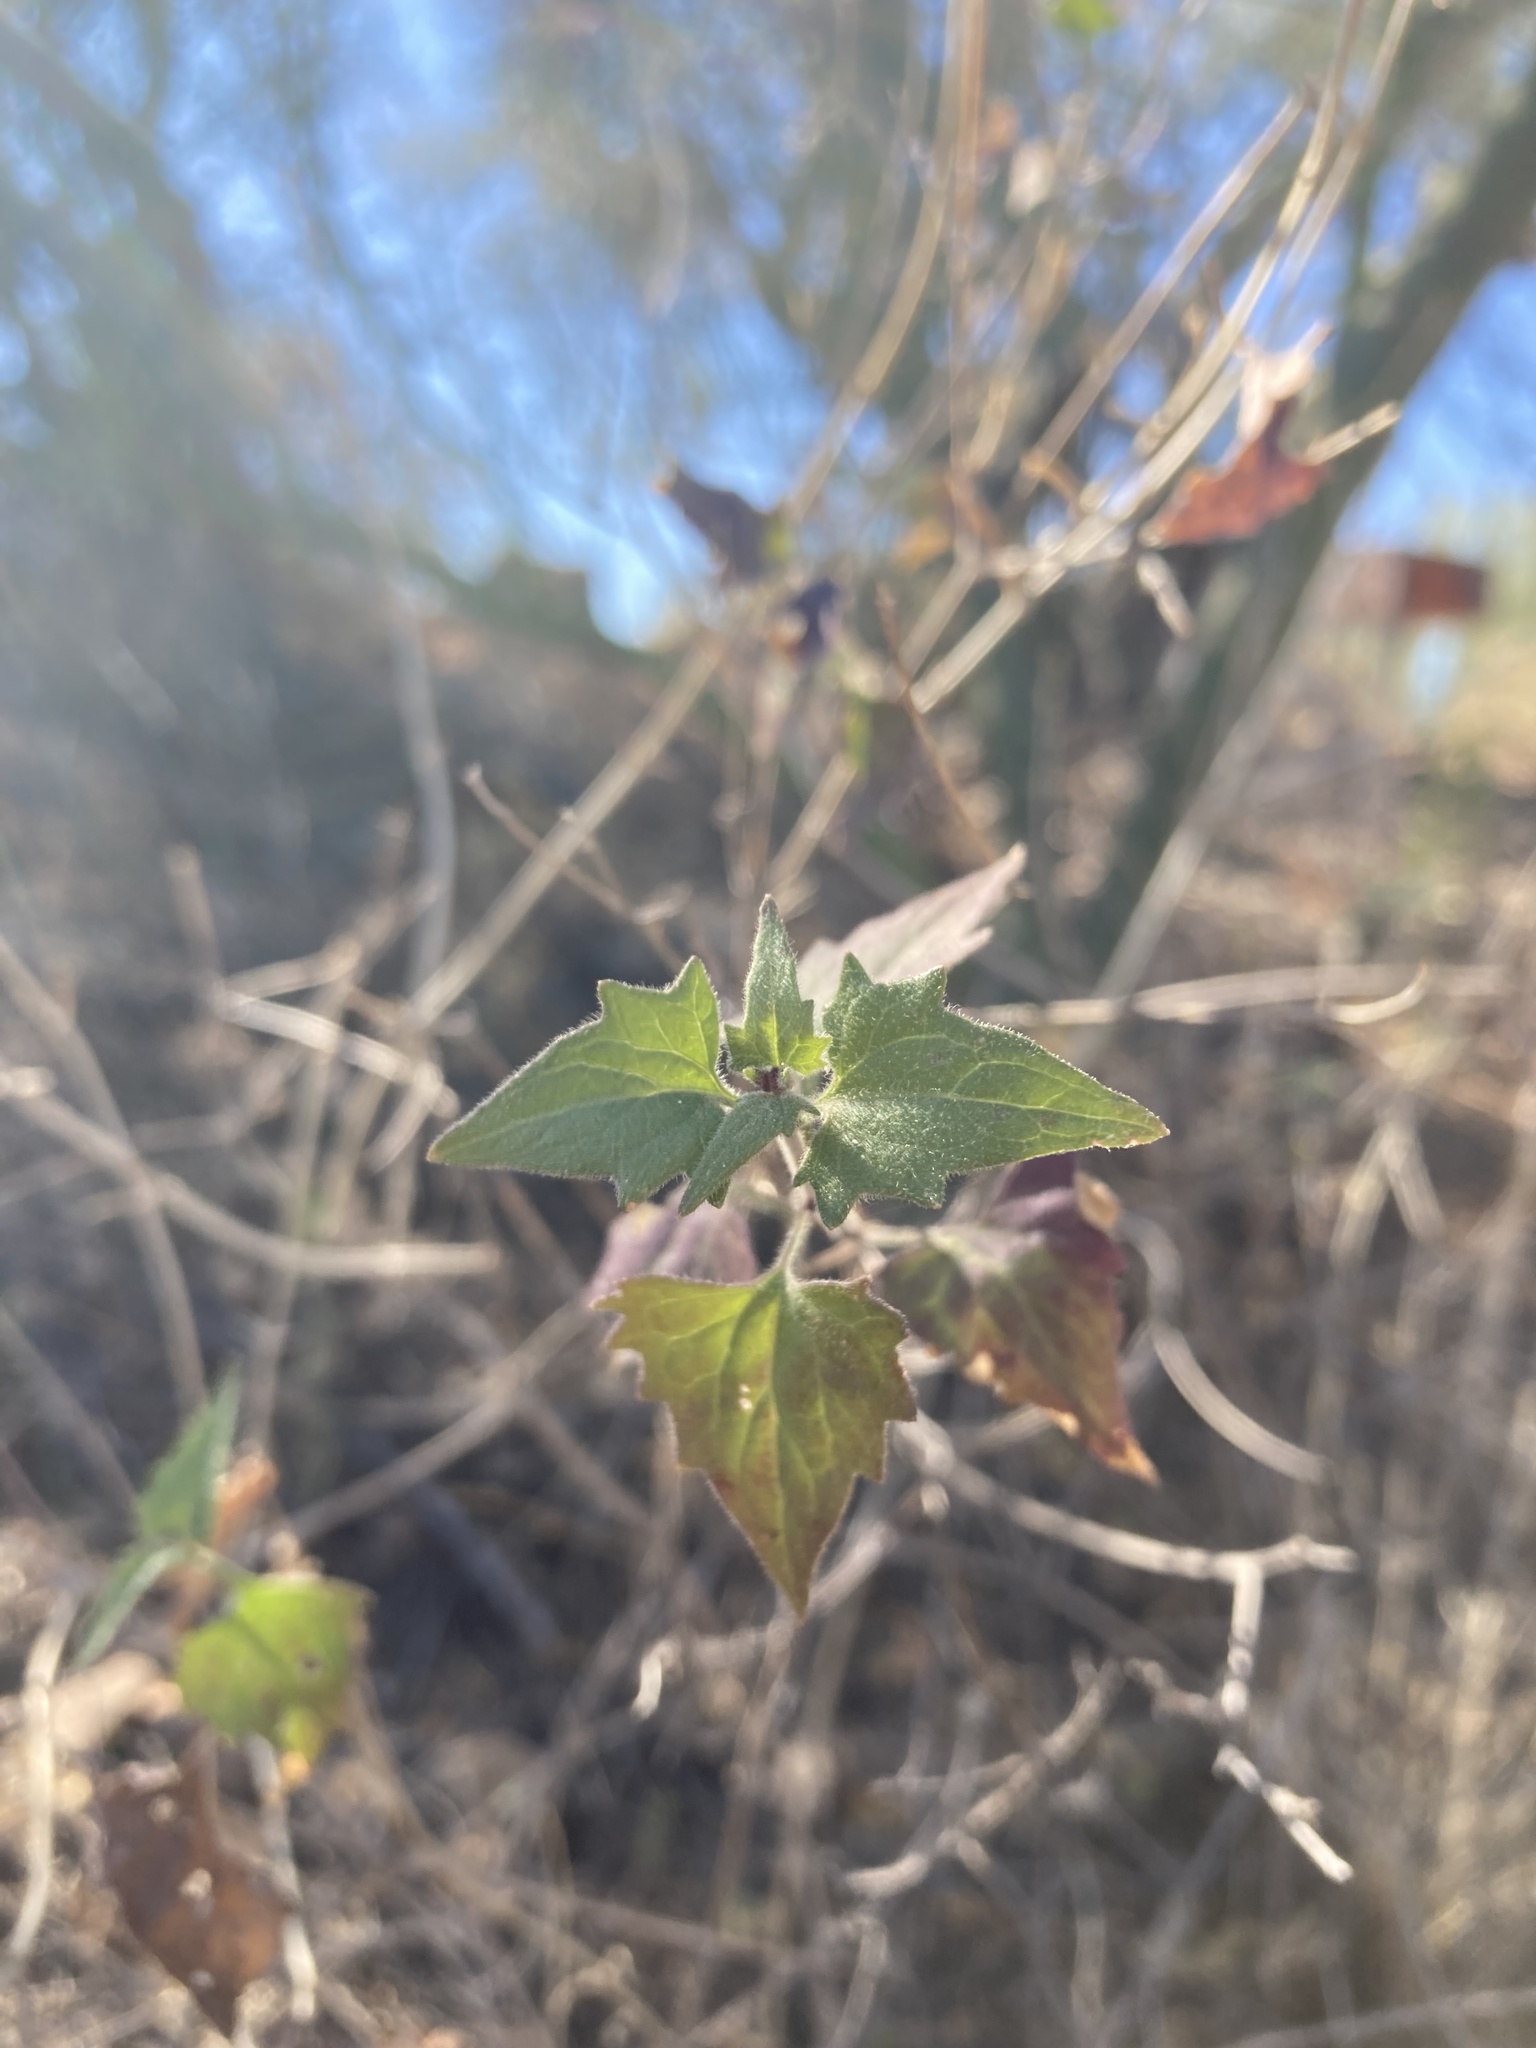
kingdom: Plantae
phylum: Tracheophyta
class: Magnoliopsida
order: Asterales
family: Asteraceae
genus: Brickellia
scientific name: Brickellia coulteri
